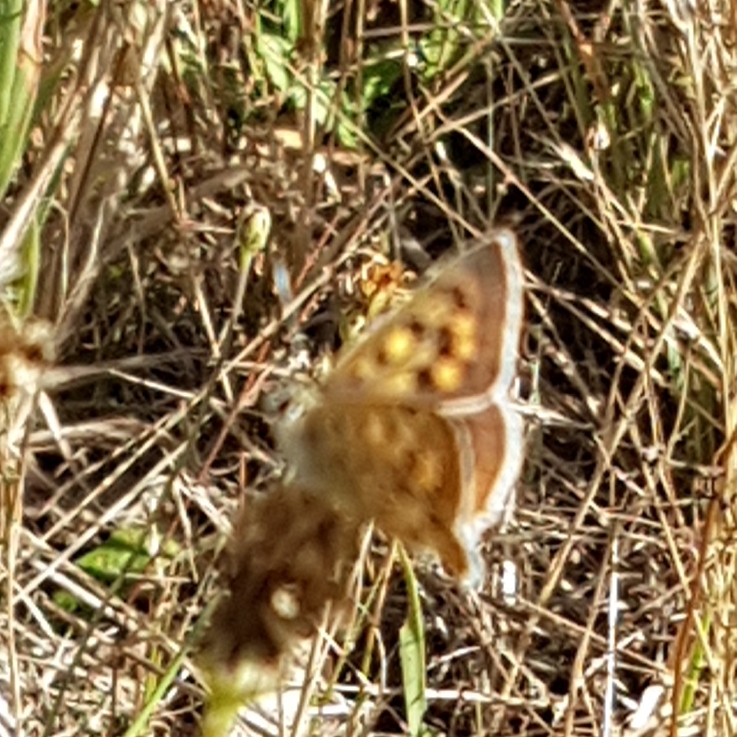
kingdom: Animalia
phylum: Arthropoda
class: Insecta
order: Lepidoptera
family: Lycaenidae
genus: Lycaena
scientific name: Lycaena bleusei
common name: Iberian sooty copper
